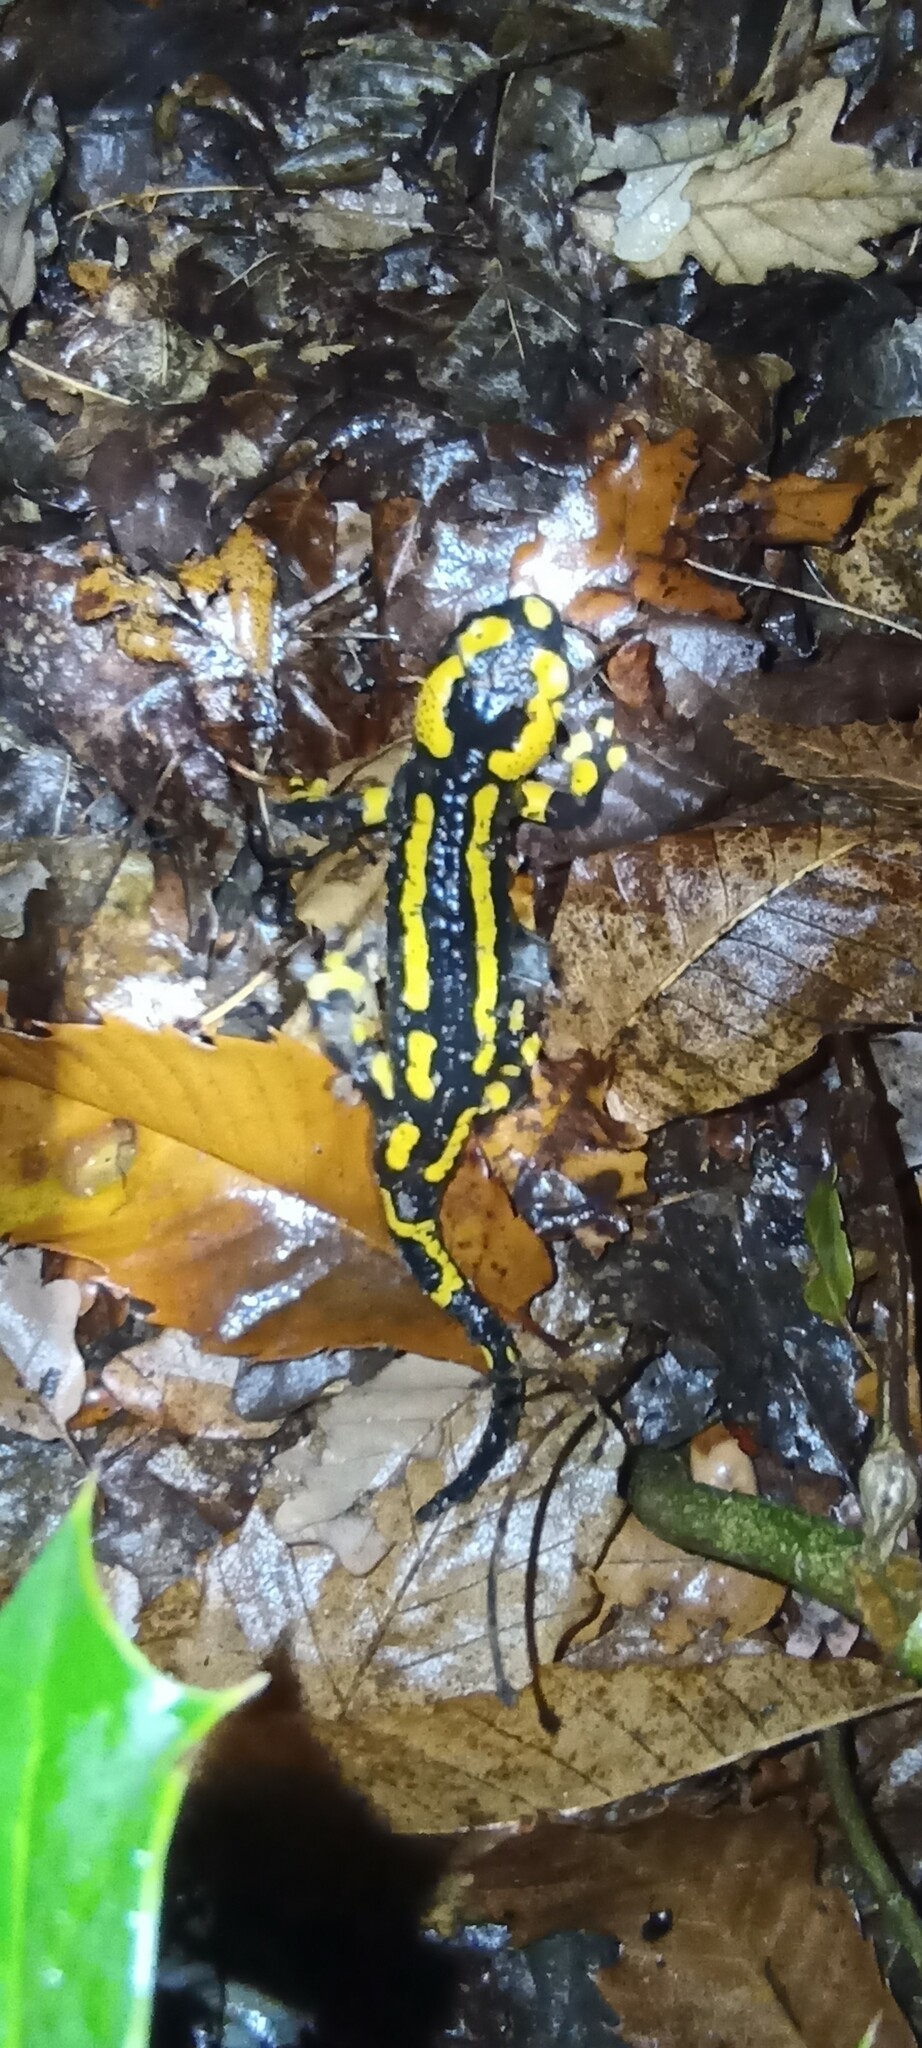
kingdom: Animalia
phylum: Chordata
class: Amphibia
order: Caudata
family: Salamandridae
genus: Salamandra
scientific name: Salamandra salamandra
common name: Fire salamander
